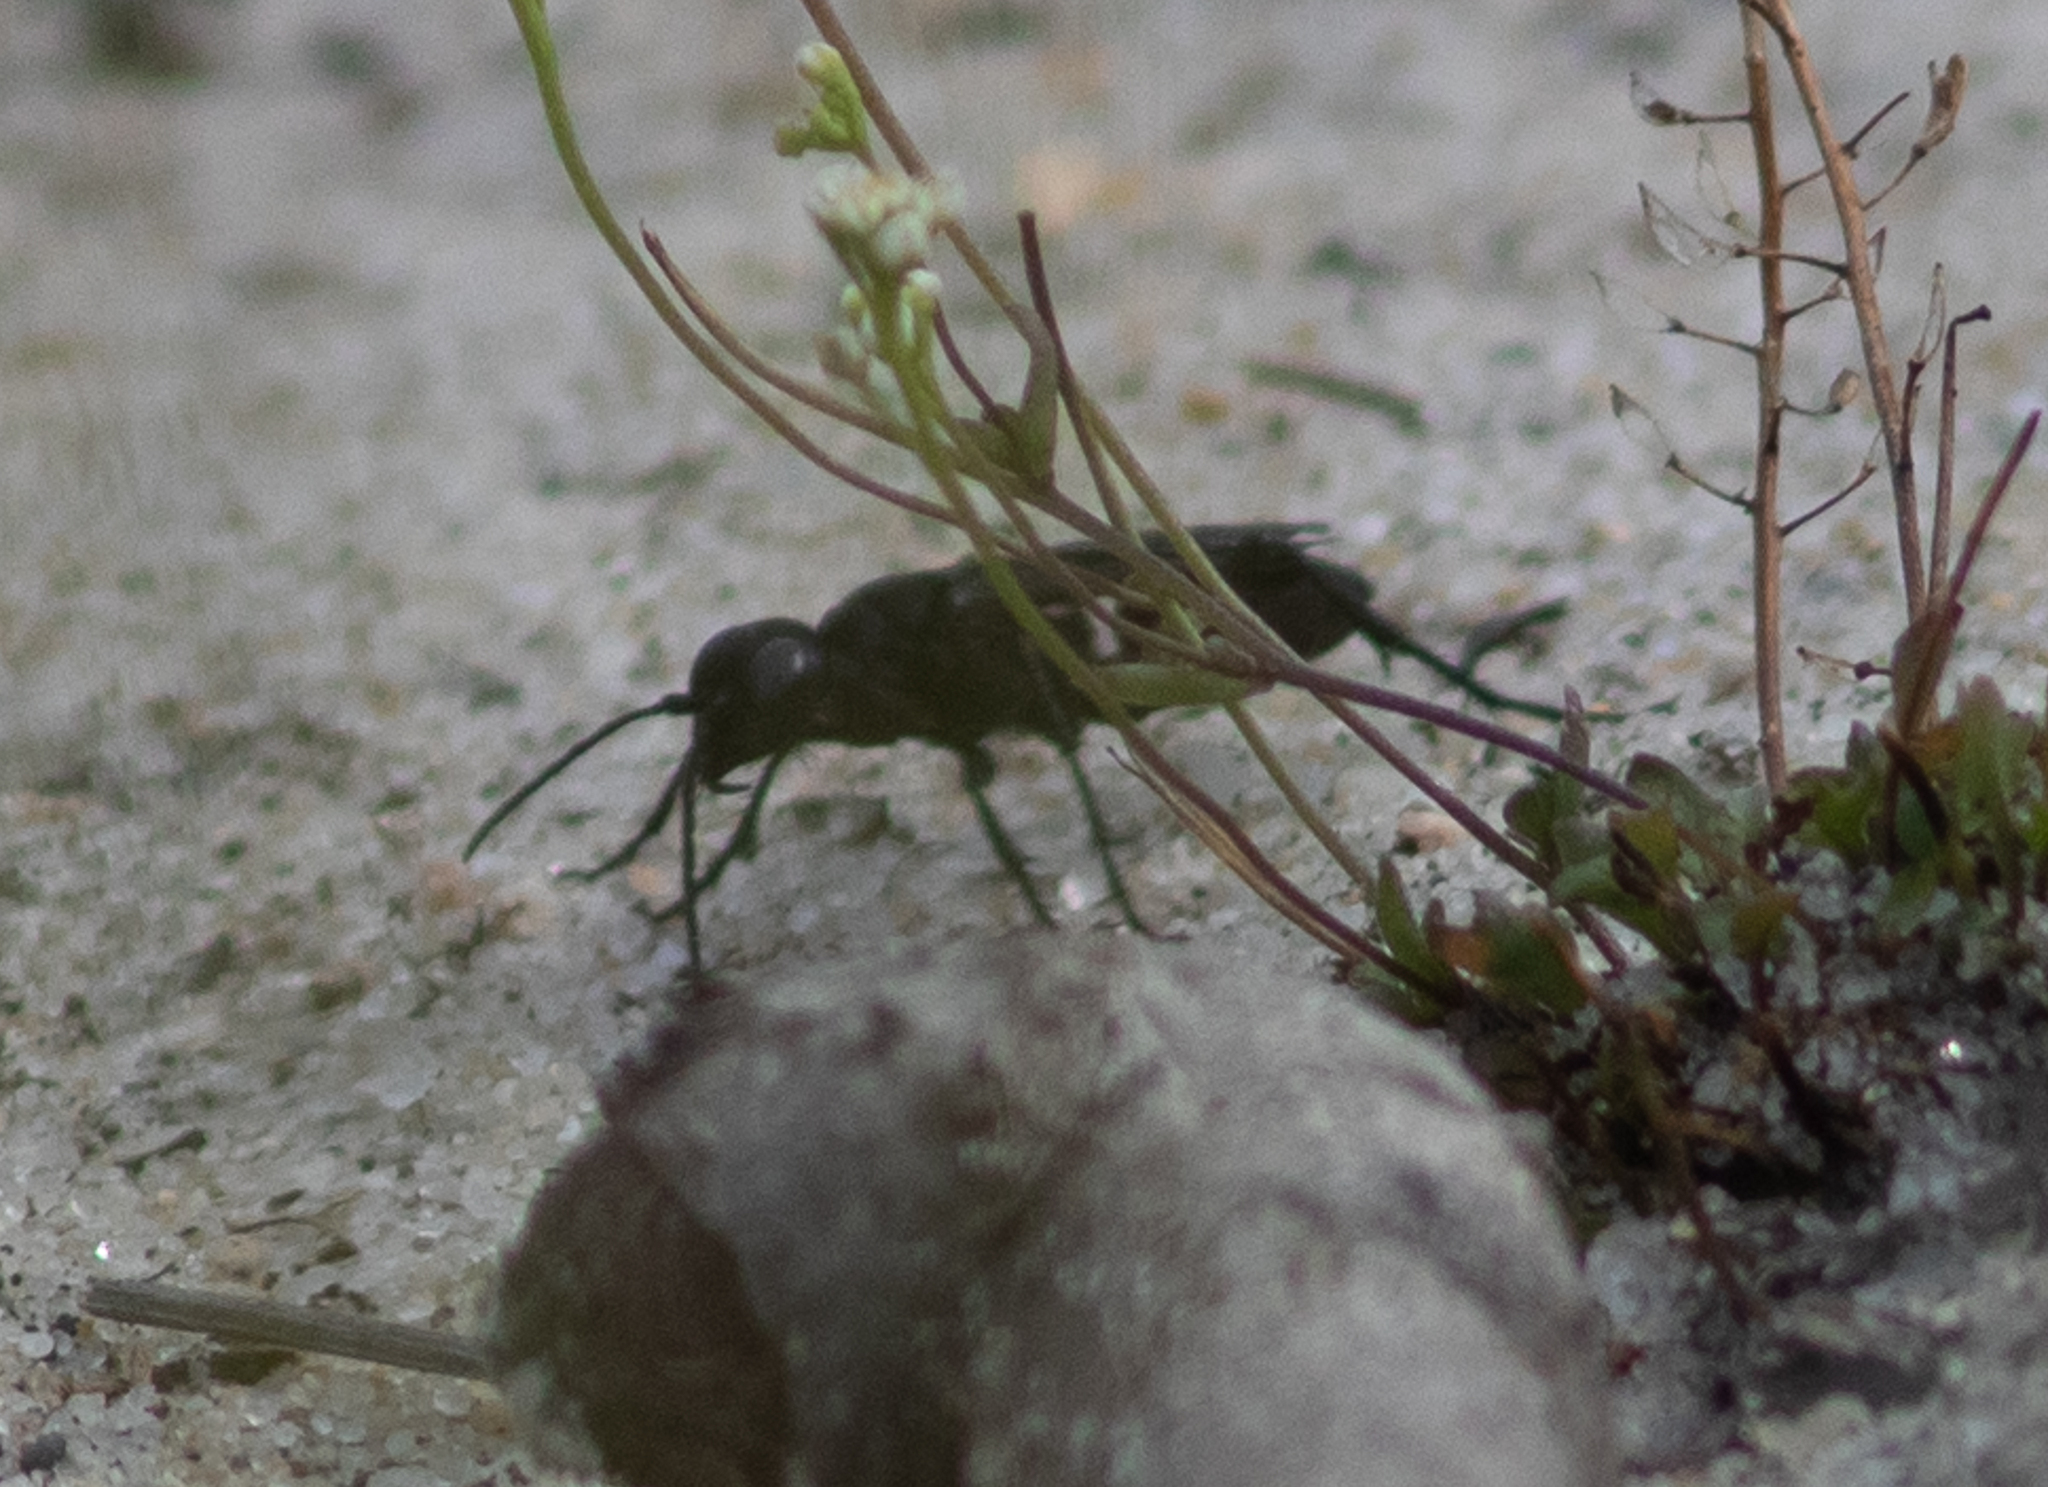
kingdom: Animalia
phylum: Arthropoda
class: Insecta
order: Hymenoptera
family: Sphecidae
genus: Chlorion
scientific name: Chlorion aerarium
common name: Steel-blue cricket hunter
